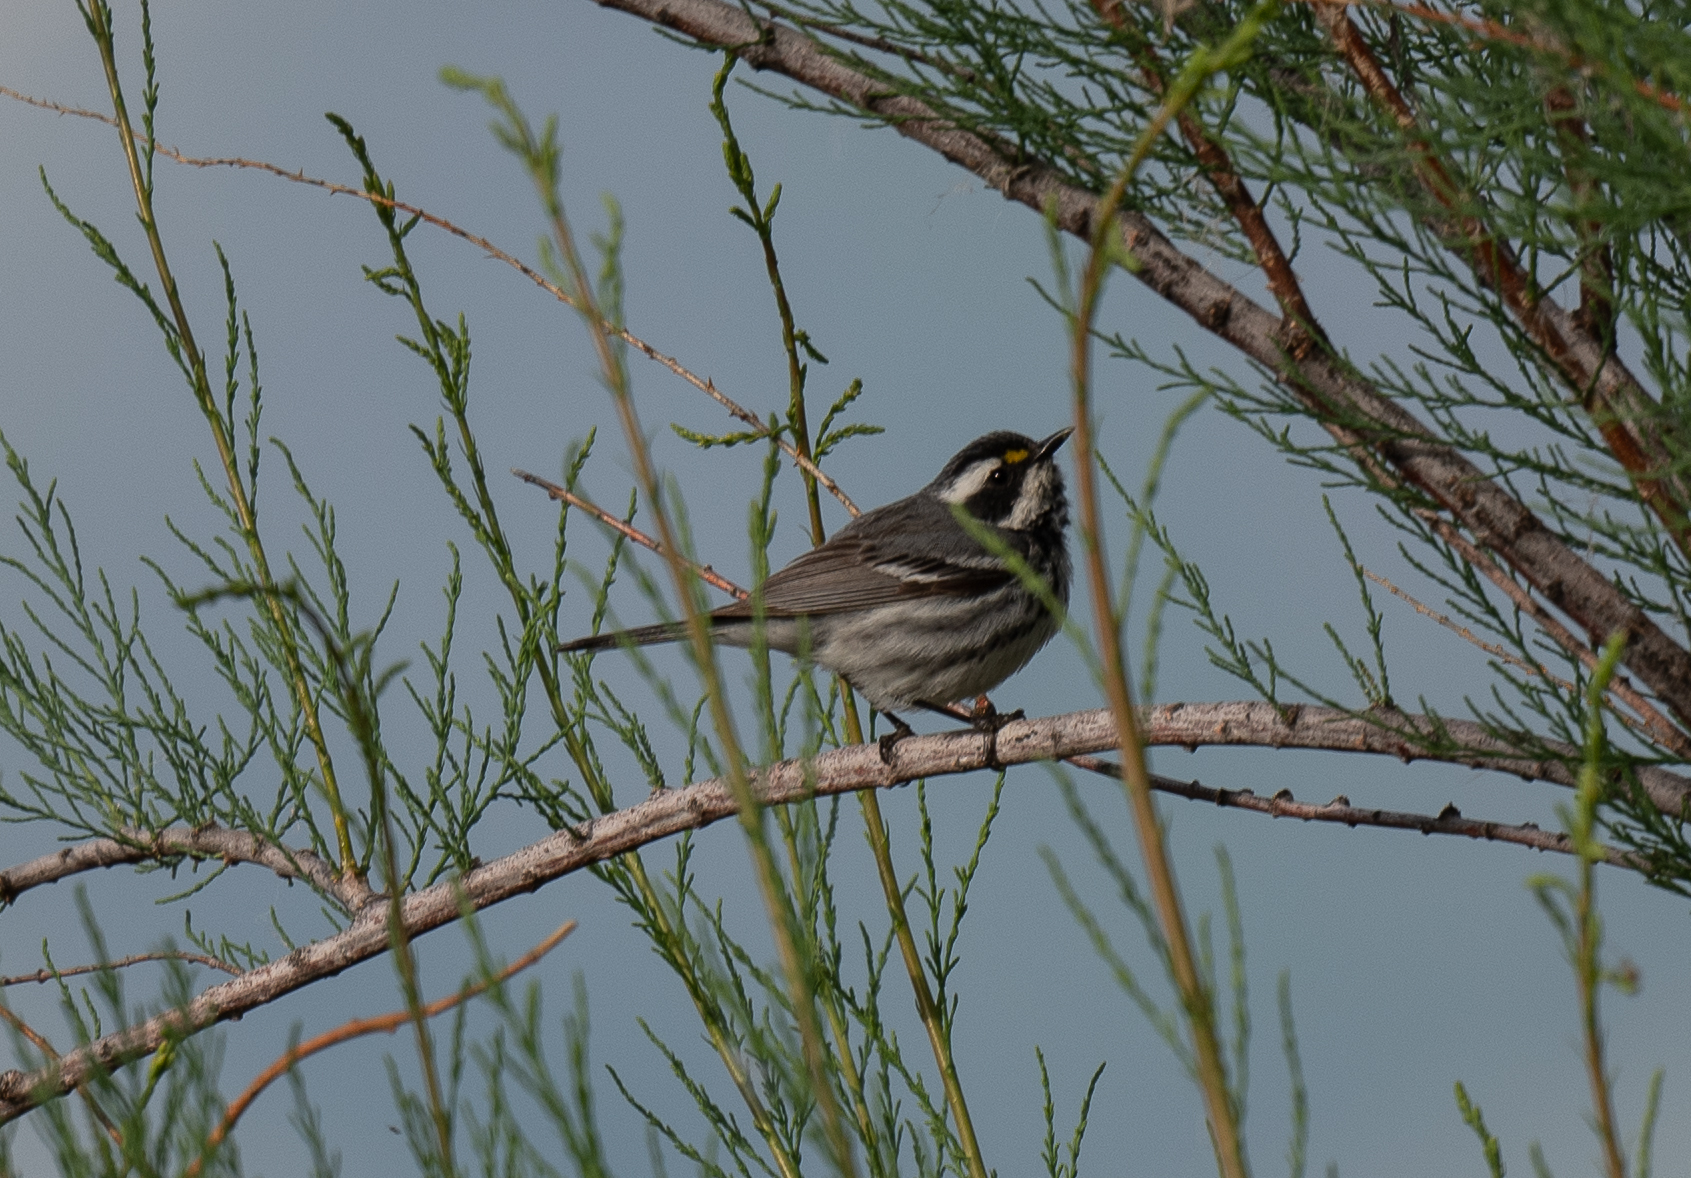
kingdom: Animalia
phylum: Chordata
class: Aves
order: Passeriformes
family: Parulidae
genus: Setophaga
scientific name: Setophaga nigrescens
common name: Black-throated gray warbler
